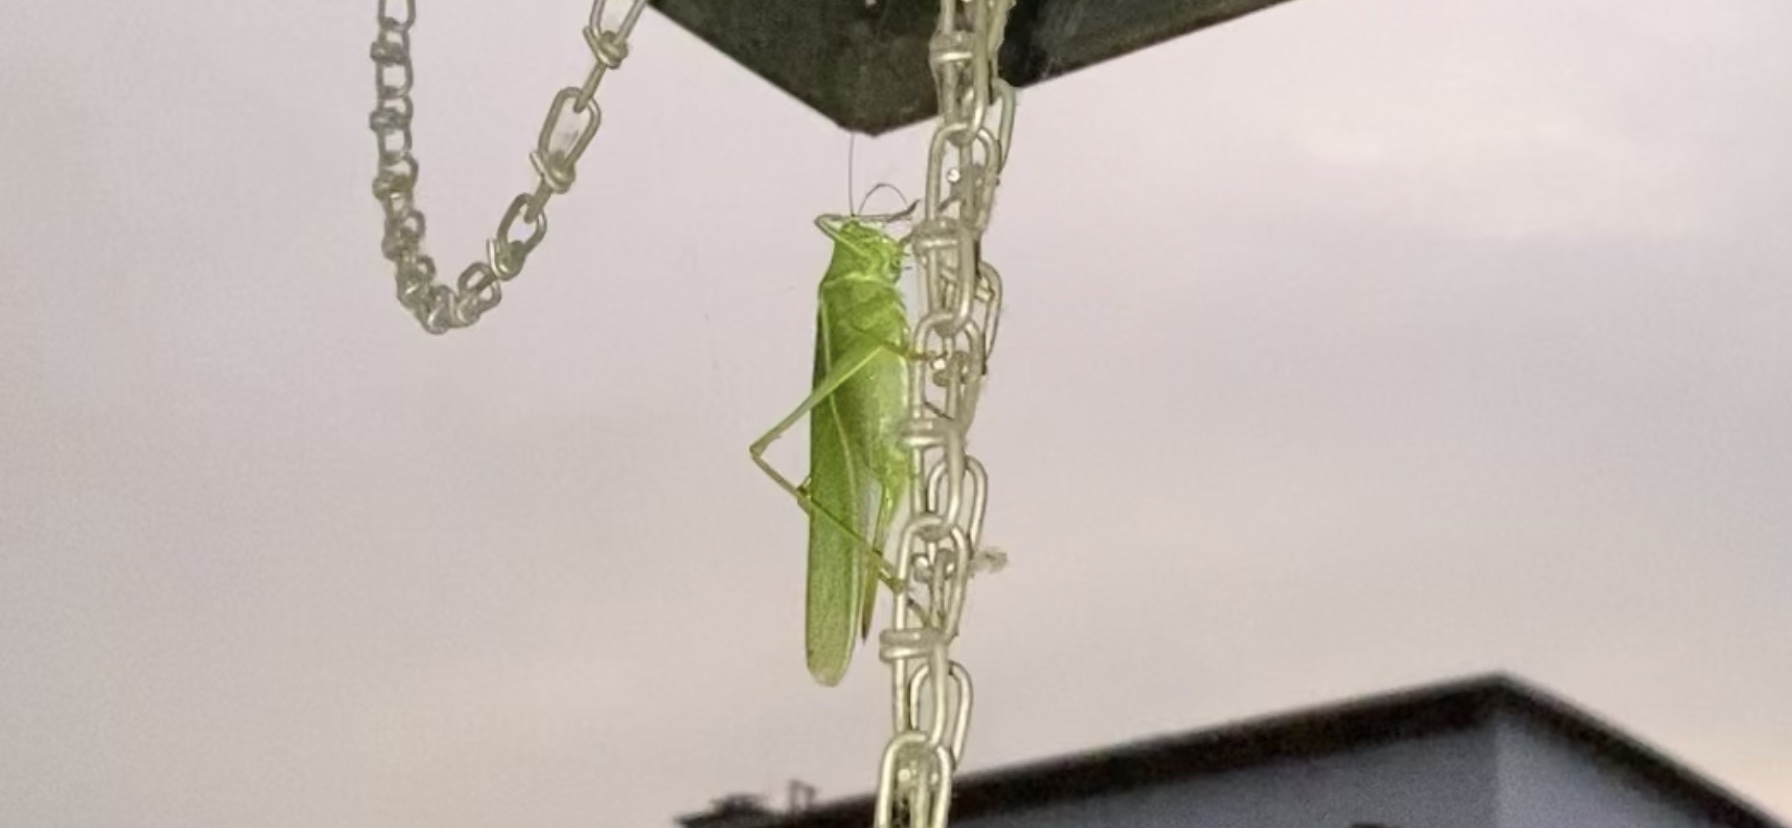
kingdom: Animalia
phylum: Arthropoda
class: Insecta
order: Orthoptera
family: Tettigoniidae
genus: Tettigonia
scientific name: Tettigonia viridissima
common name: Great green bush-cricket
